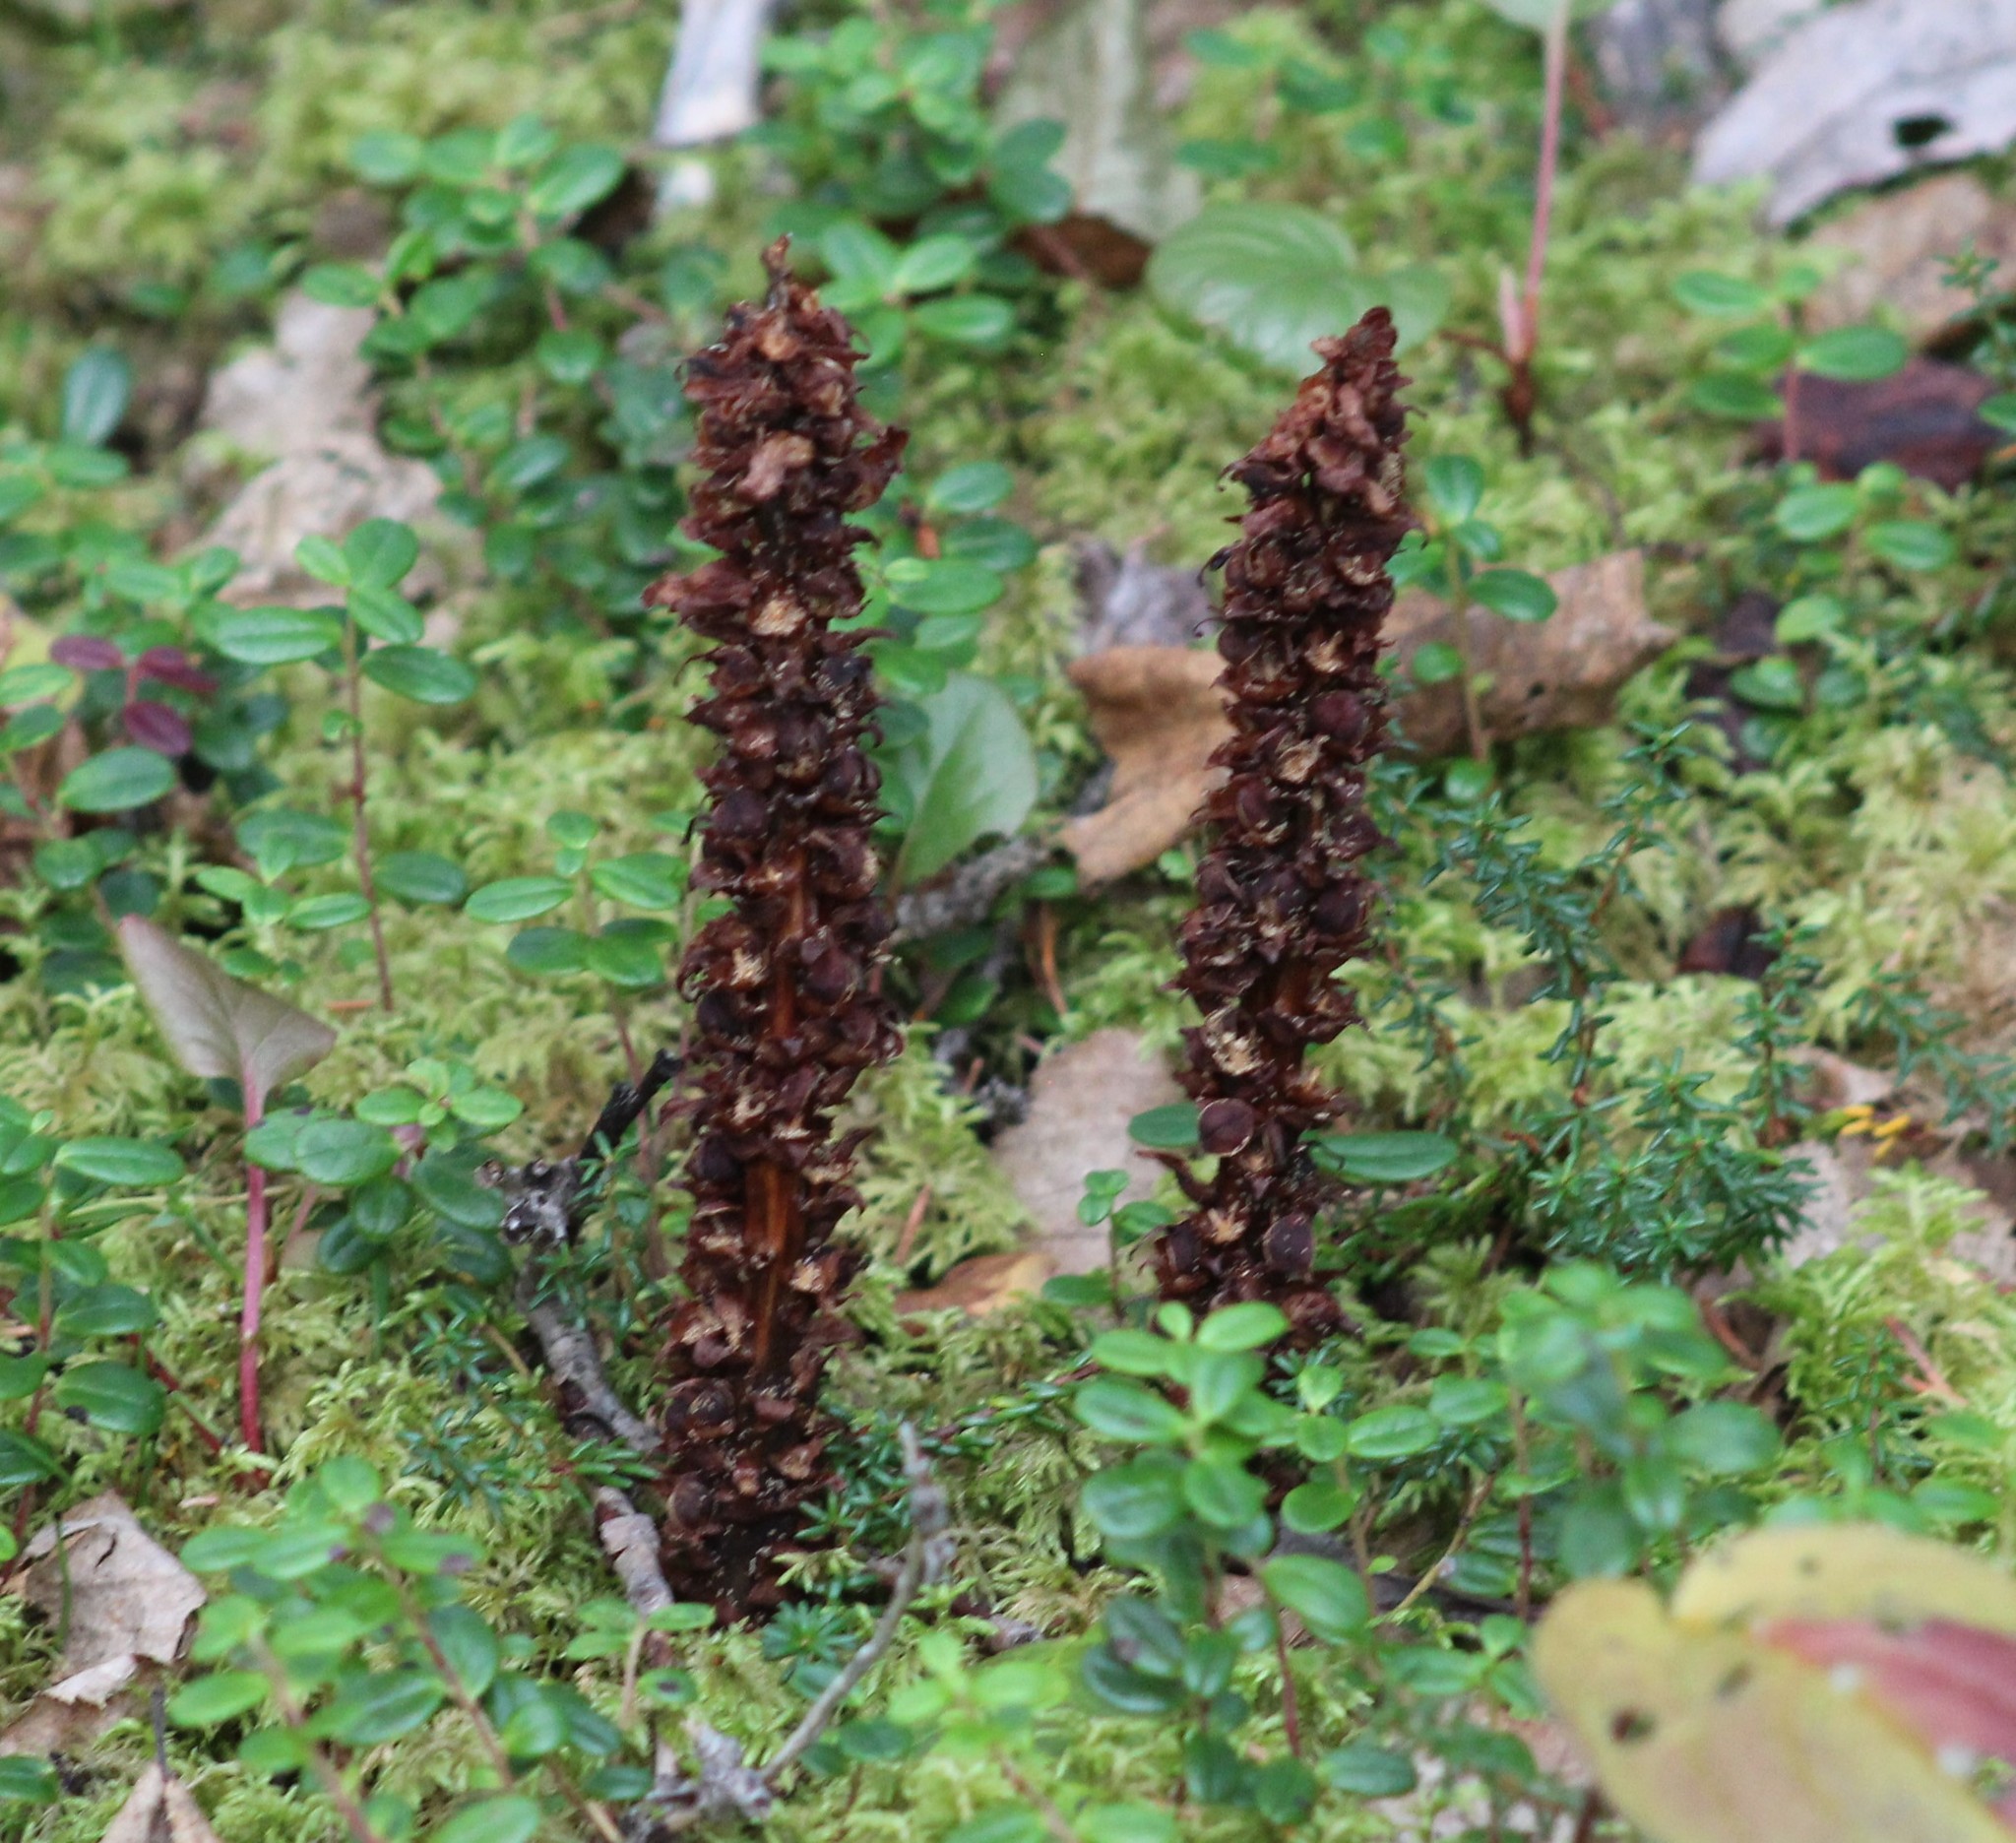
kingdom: Plantae
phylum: Tracheophyta
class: Magnoliopsida
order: Lamiales
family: Orobanchaceae
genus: Boschniakia
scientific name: Boschniakia rossica
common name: Poque
